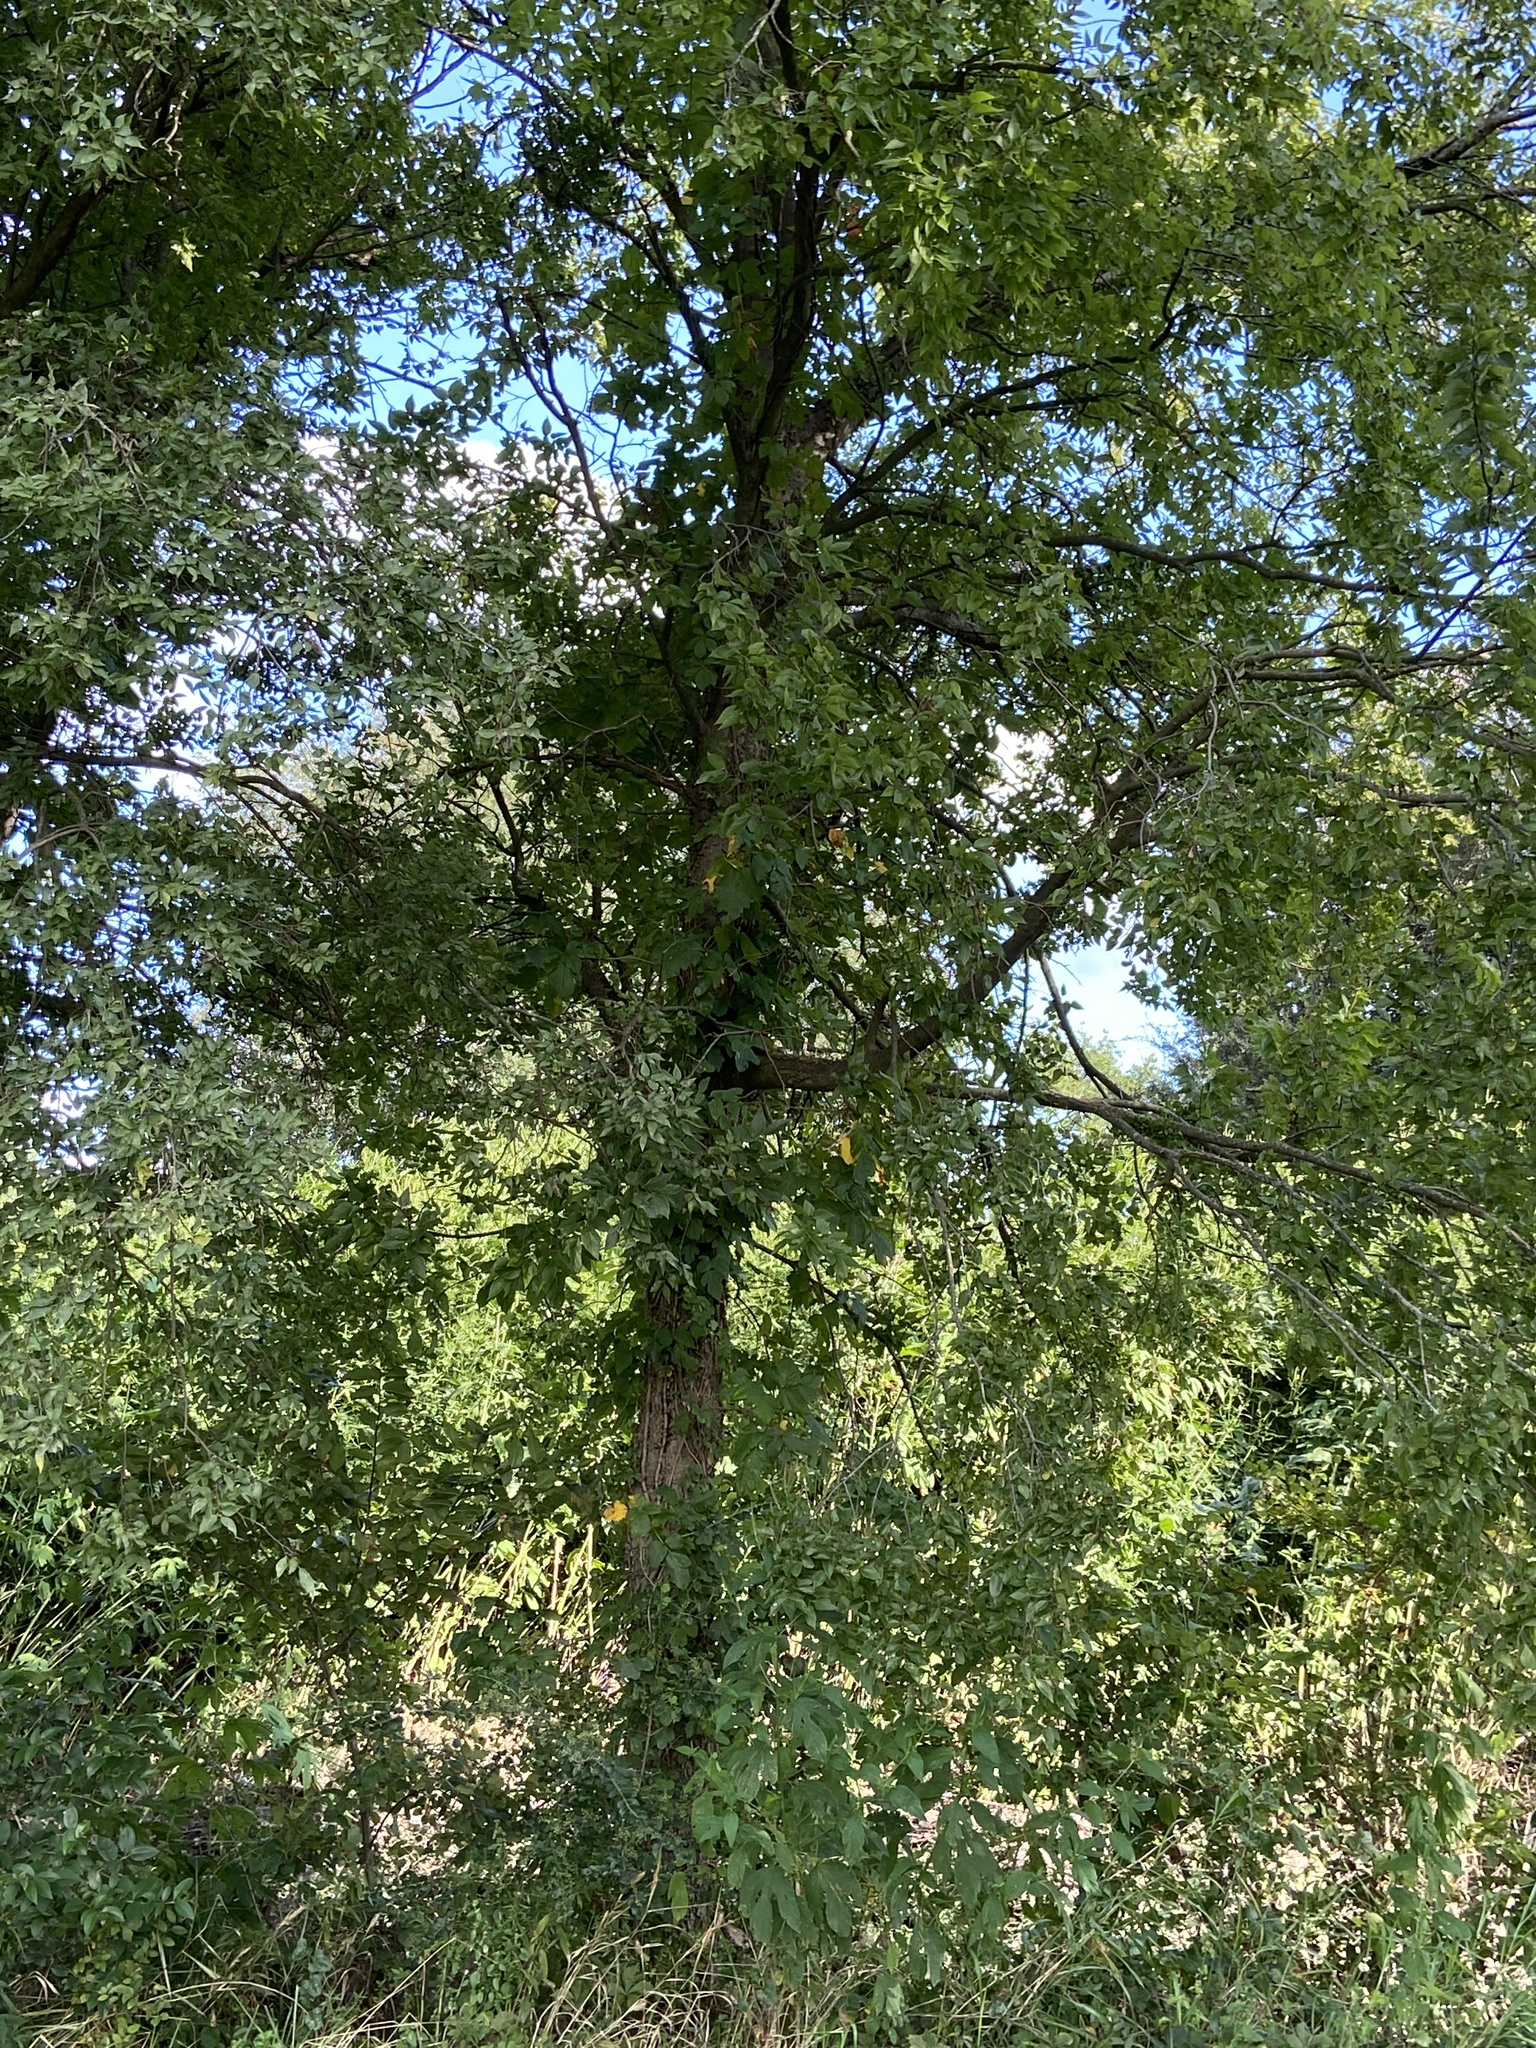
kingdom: Plantae
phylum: Tracheophyta
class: Magnoliopsida
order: Rosales
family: Cannabaceae
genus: Celtis
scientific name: Celtis laevigata
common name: Sugarberry
